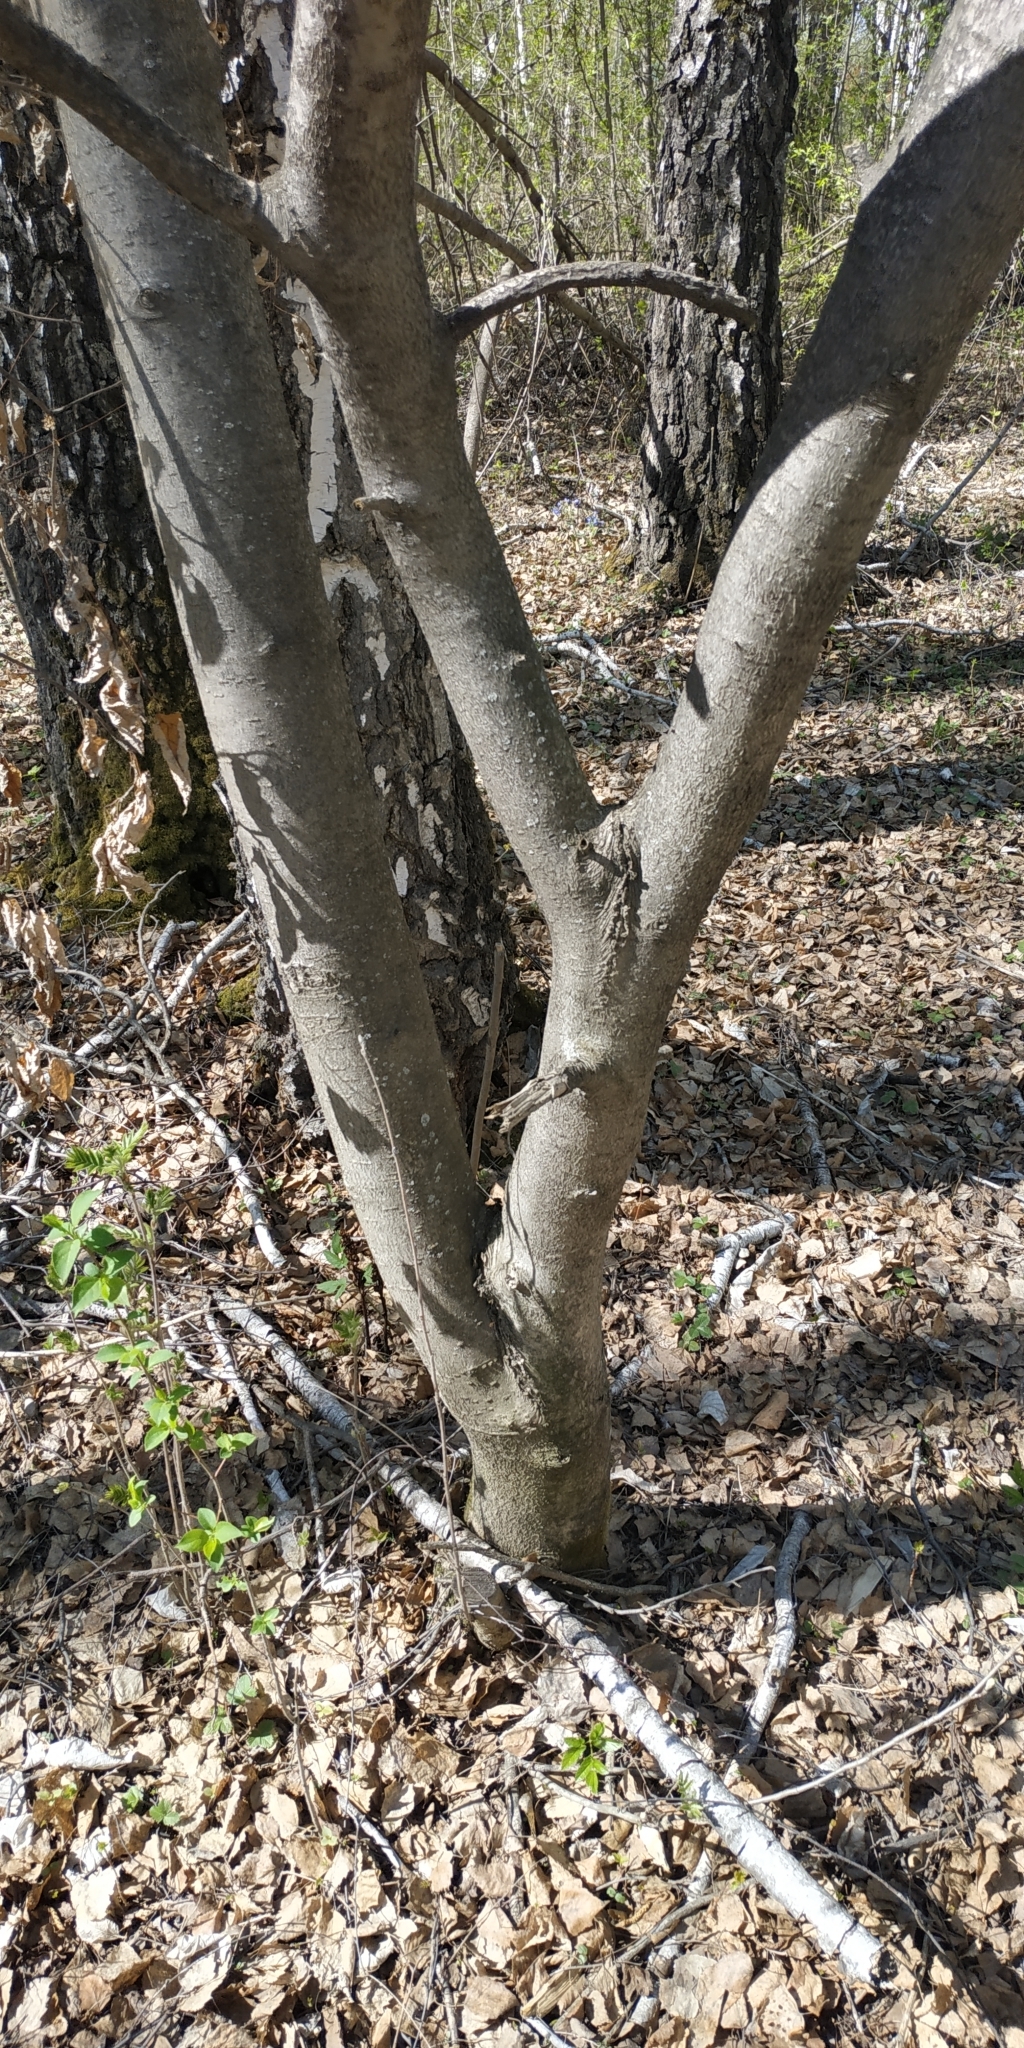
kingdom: Plantae
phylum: Tracheophyta
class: Magnoliopsida
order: Rosales
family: Rosaceae
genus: Sorbus
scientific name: Sorbus aucuparia
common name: Rowan
